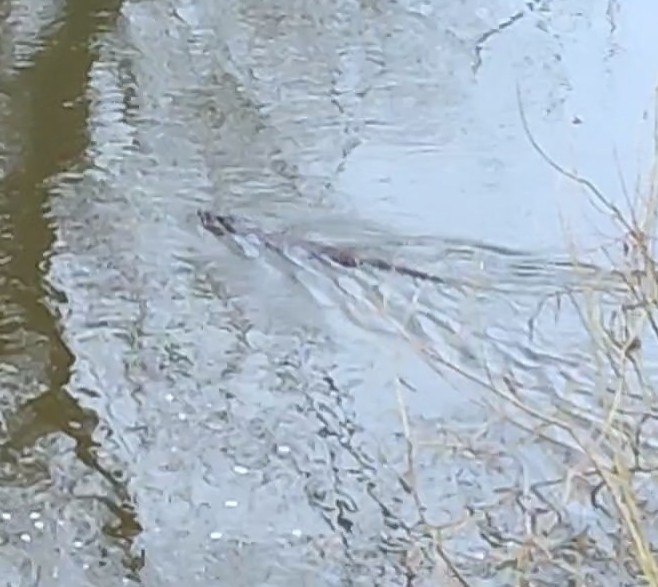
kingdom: Animalia
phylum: Chordata
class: Mammalia
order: Carnivora
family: Mustelidae
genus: Lutra
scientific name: Lutra lutra
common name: European otter
